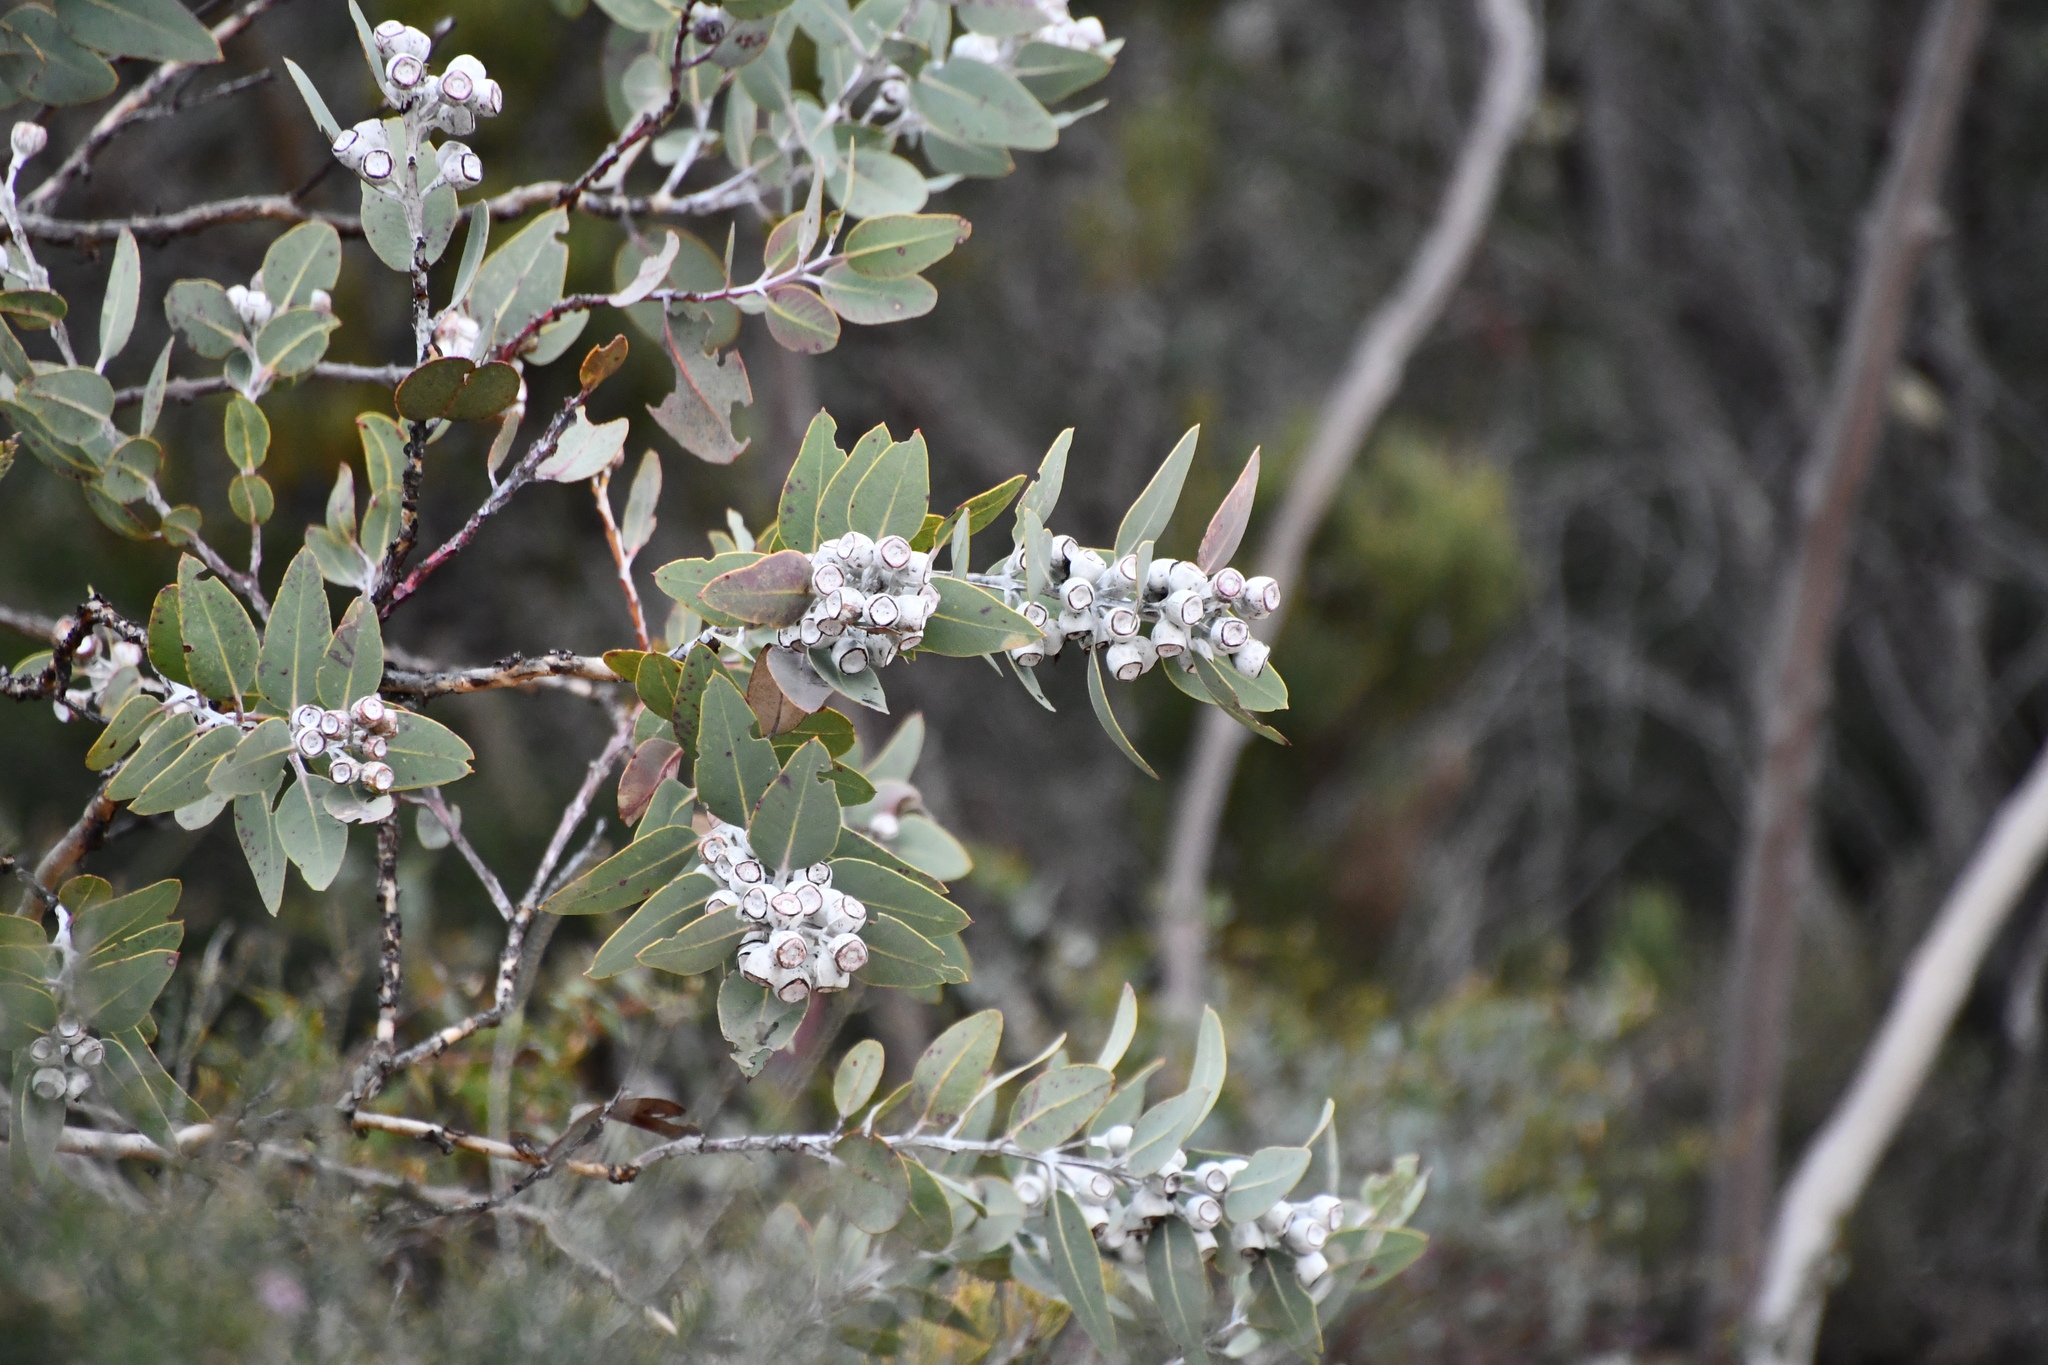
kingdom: Plantae
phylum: Tracheophyta
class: Magnoliopsida
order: Myrtales
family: Myrtaceae
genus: Eucalyptus
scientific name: Eucalyptus tetragona
